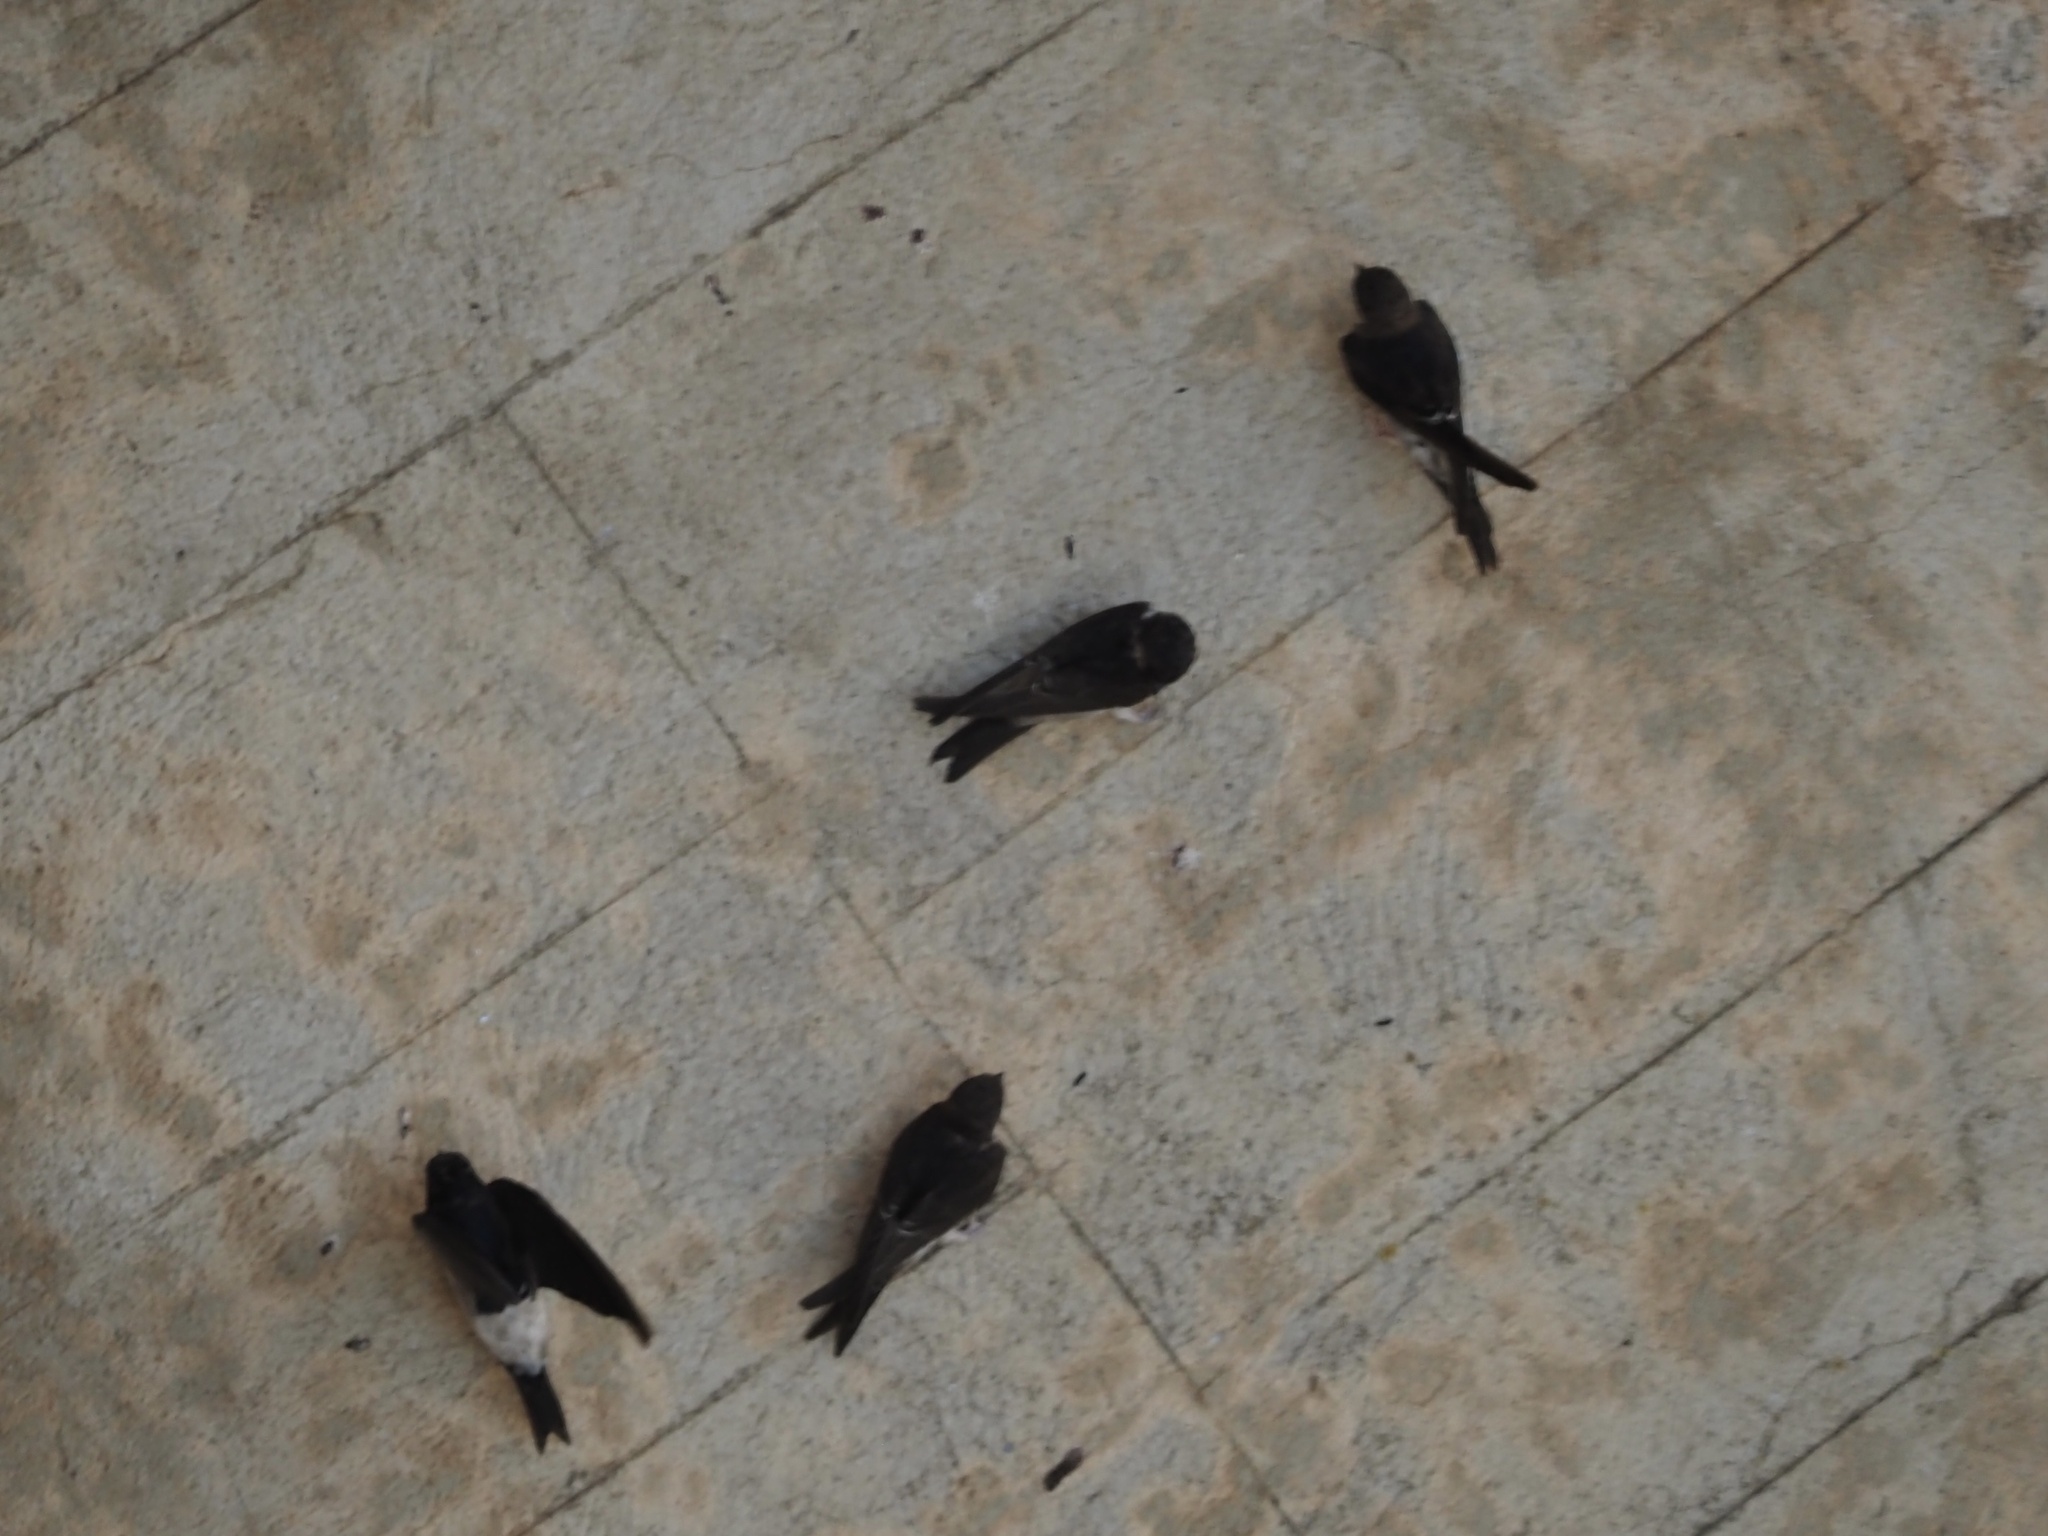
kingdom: Animalia
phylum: Chordata
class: Aves
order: Passeriformes
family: Hirundinidae
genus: Ptyonoprogne
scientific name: Ptyonoprogne rupestris
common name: Eurasian crag martin
